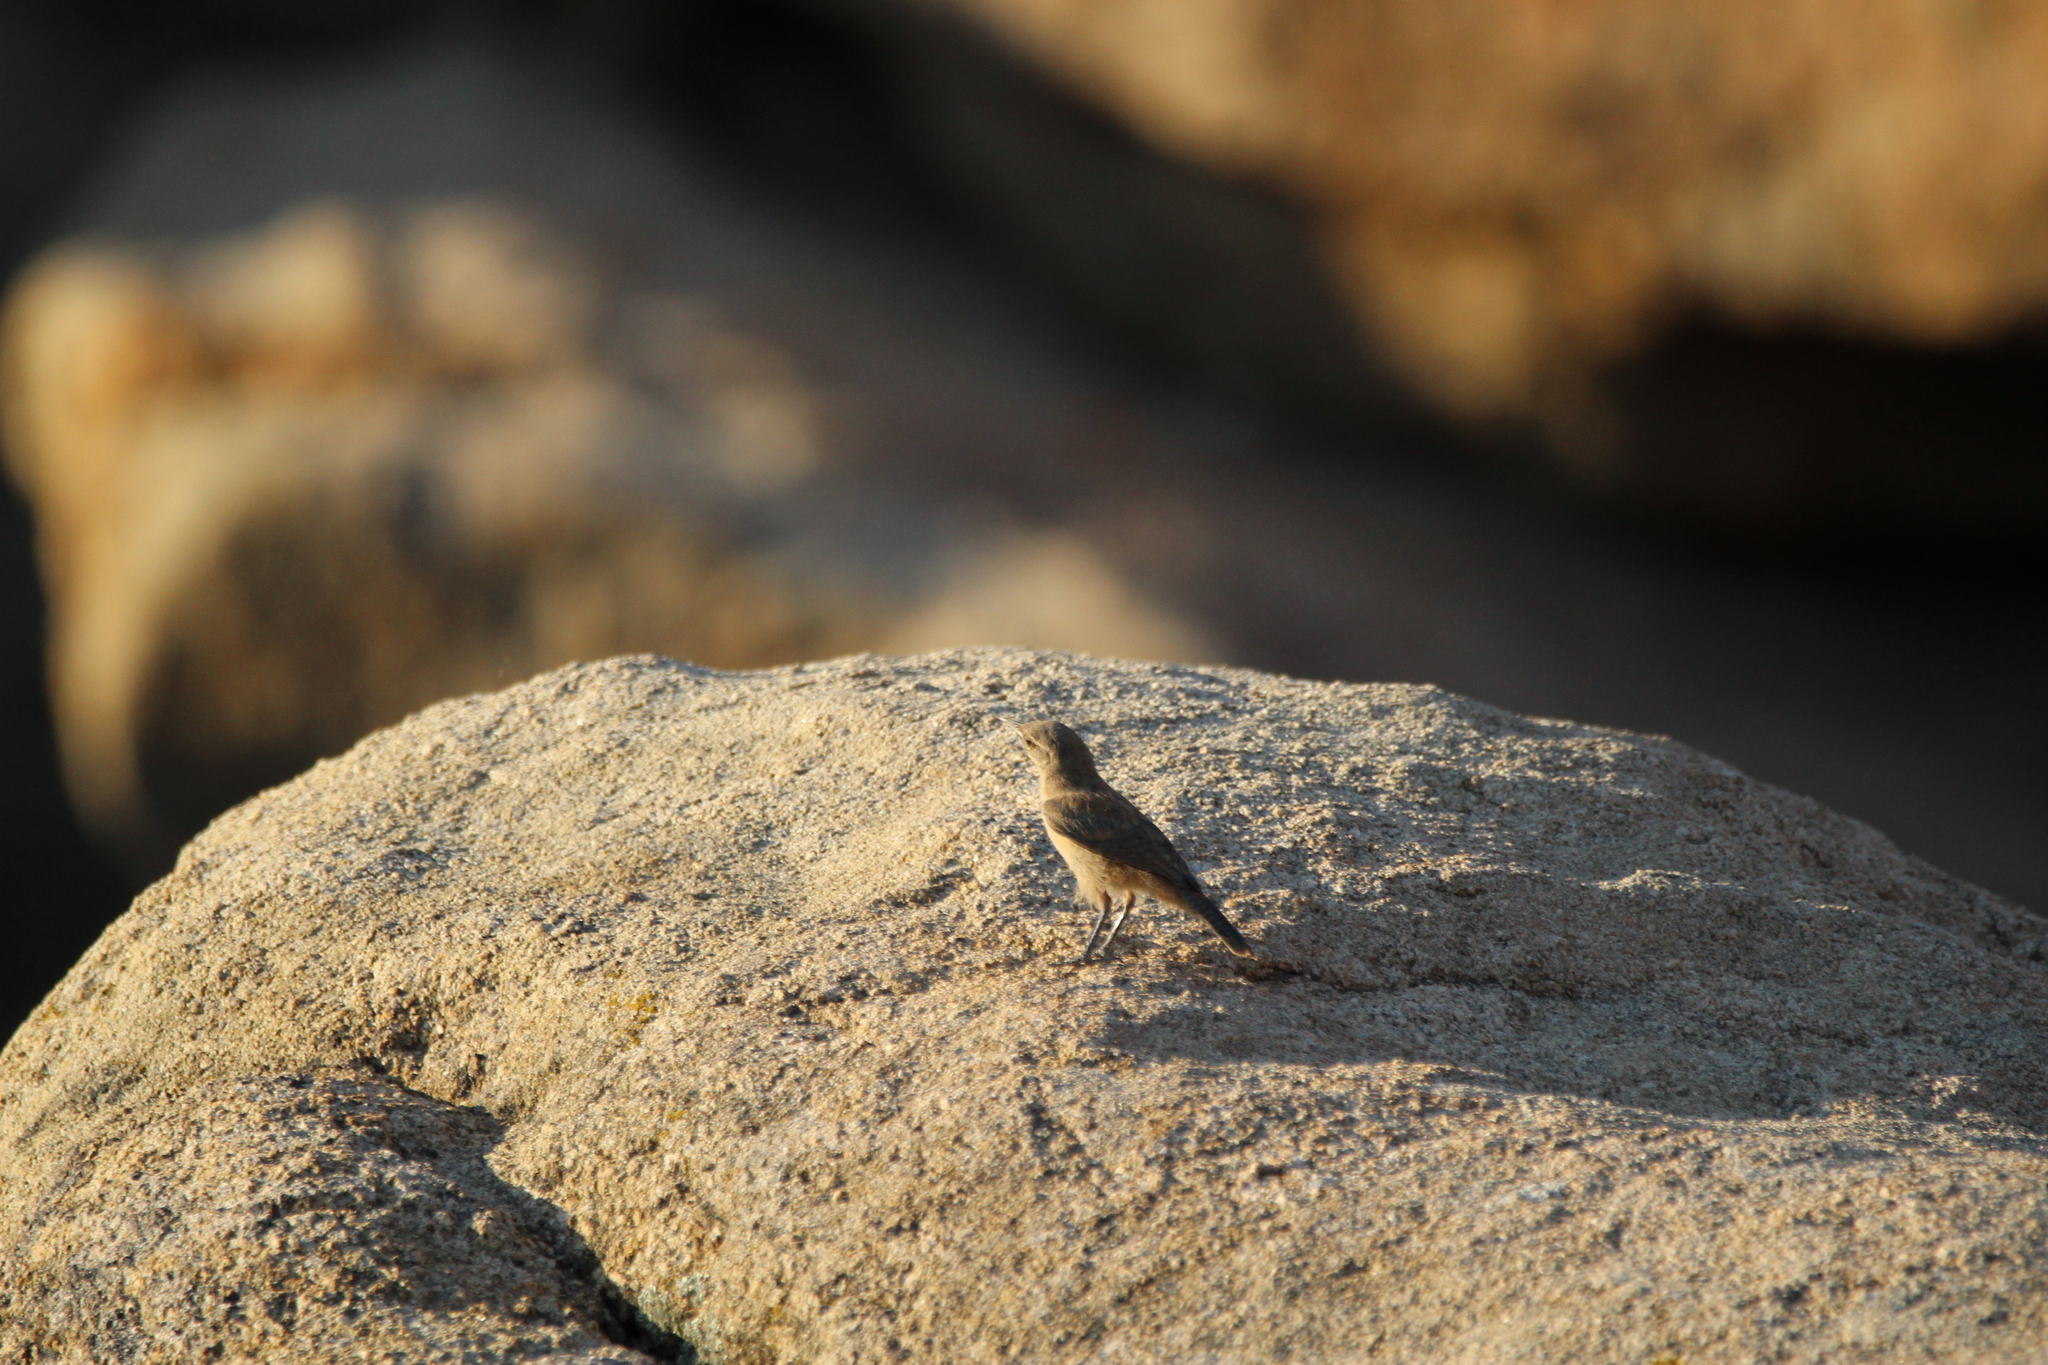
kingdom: Animalia
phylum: Chordata
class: Aves
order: Passeriformes
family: Troglodytidae
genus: Salpinctes
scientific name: Salpinctes obsoletus
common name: Rock wren
